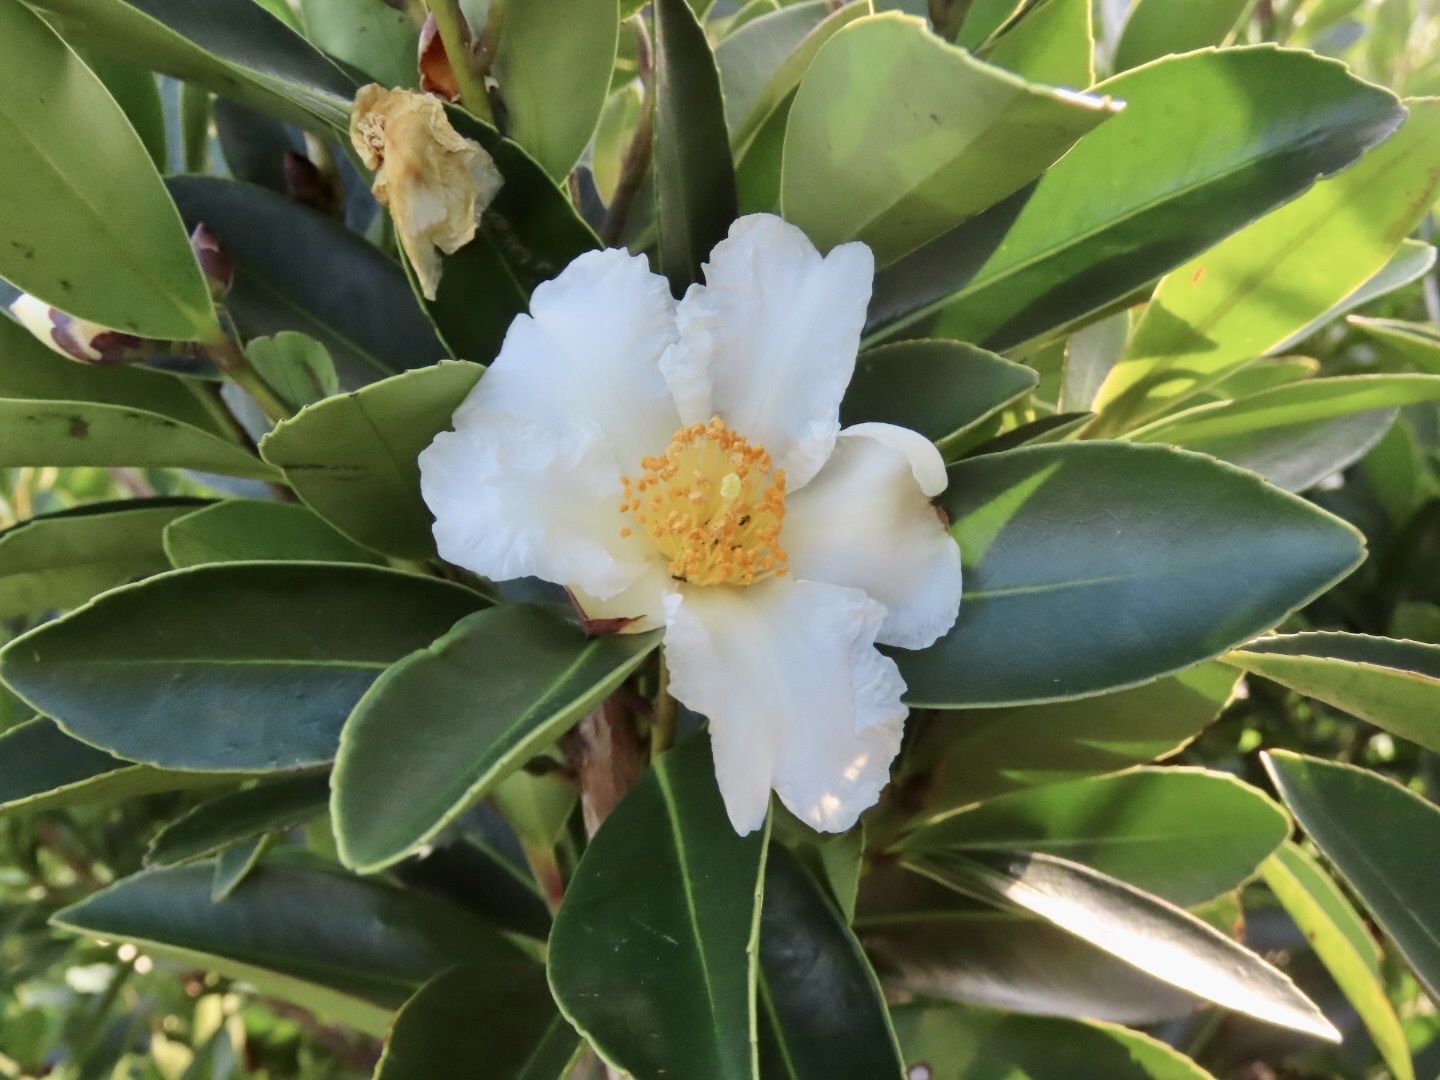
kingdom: Plantae
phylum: Tracheophyta
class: Magnoliopsida
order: Ericales
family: Theaceae
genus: Polyspora
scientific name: Polyspora axillaris
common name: Fried egg tree
